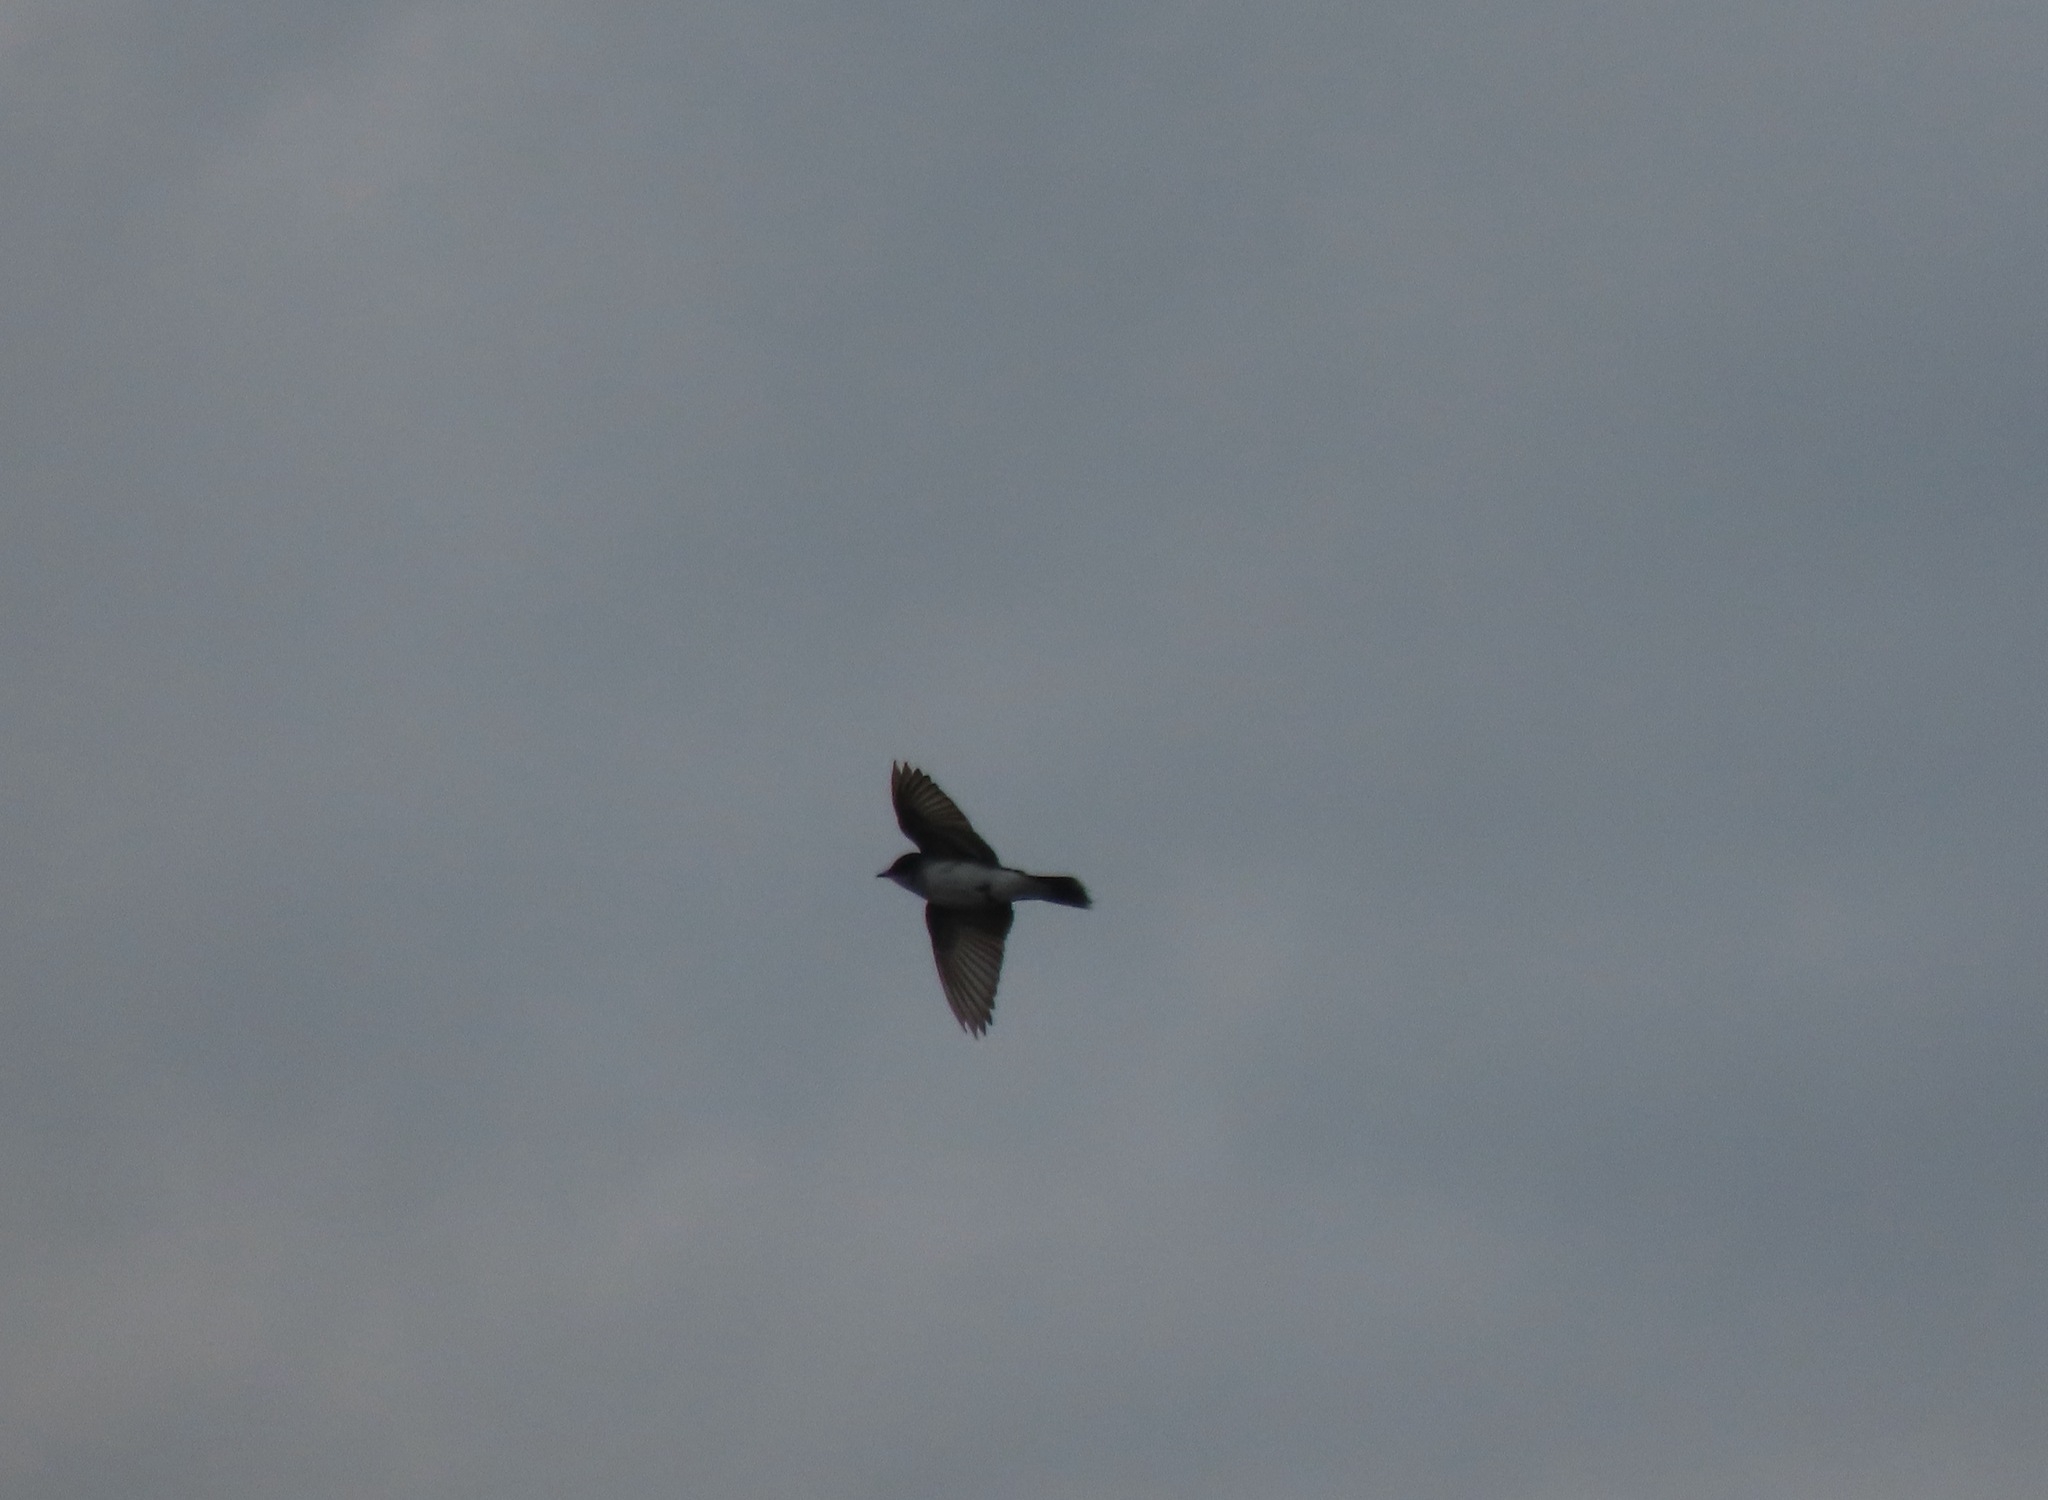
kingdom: Animalia
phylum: Chordata
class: Aves
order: Passeriformes
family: Tyrannidae
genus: Tyrannus
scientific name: Tyrannus tyrannus
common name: Eastern kingbird
